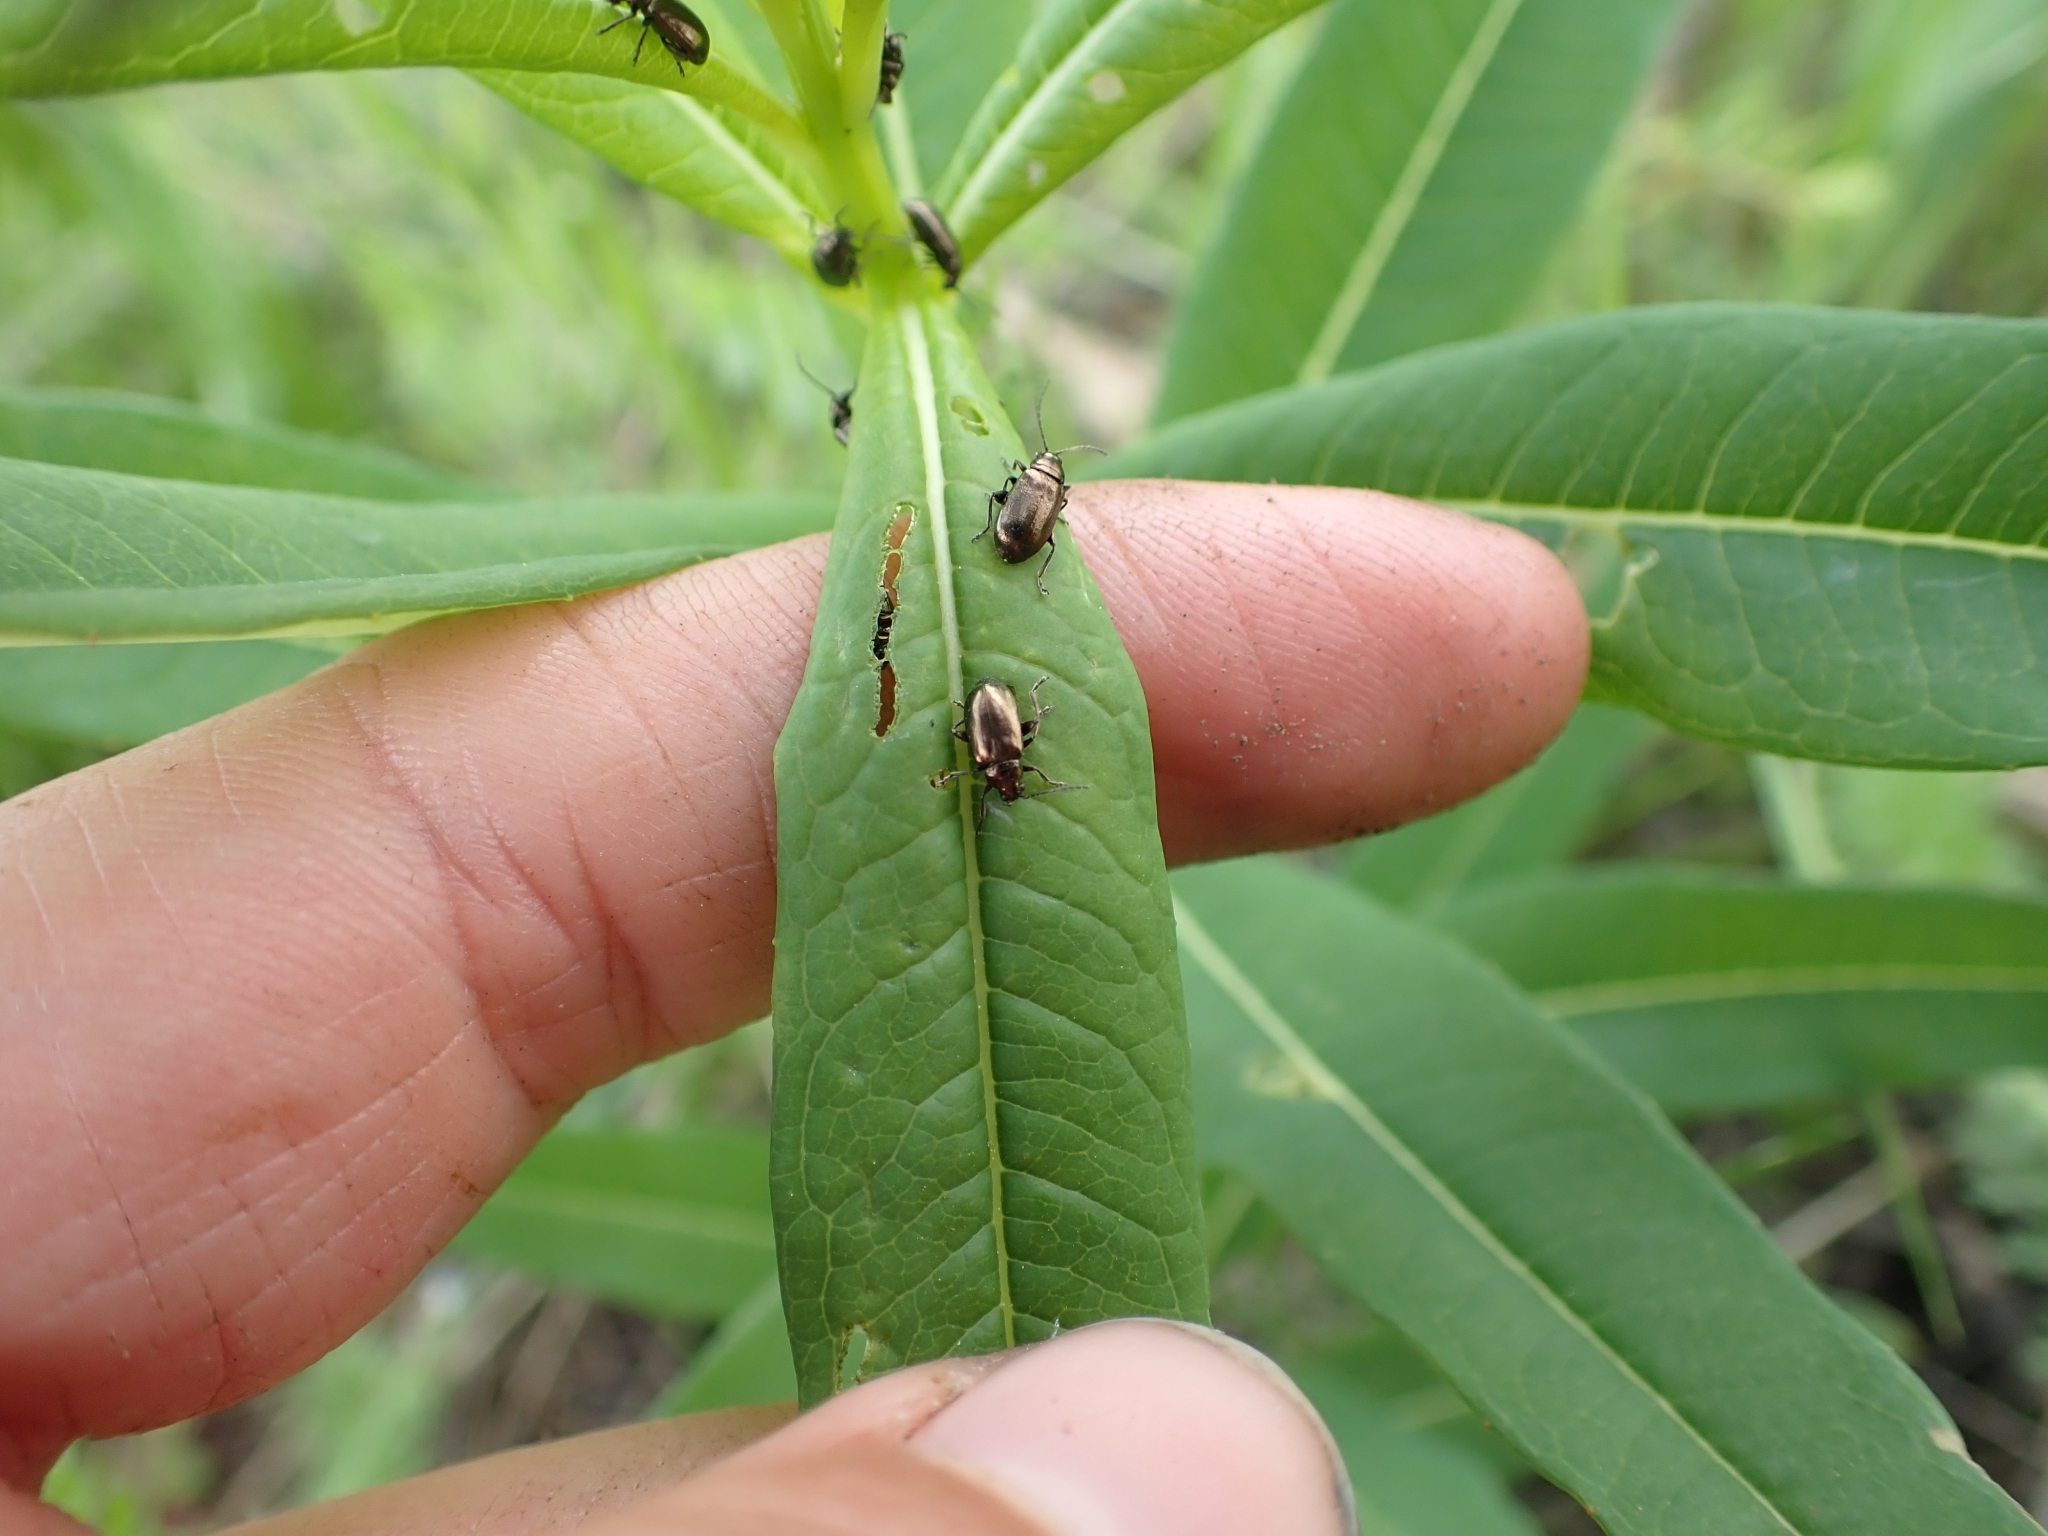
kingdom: Plantae
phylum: Tracheophyta
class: Magnoliopsida
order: Myrtales
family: Onagraceae
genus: Chamaenerion
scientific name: Chamaenerion angustifolium
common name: Fireweed
